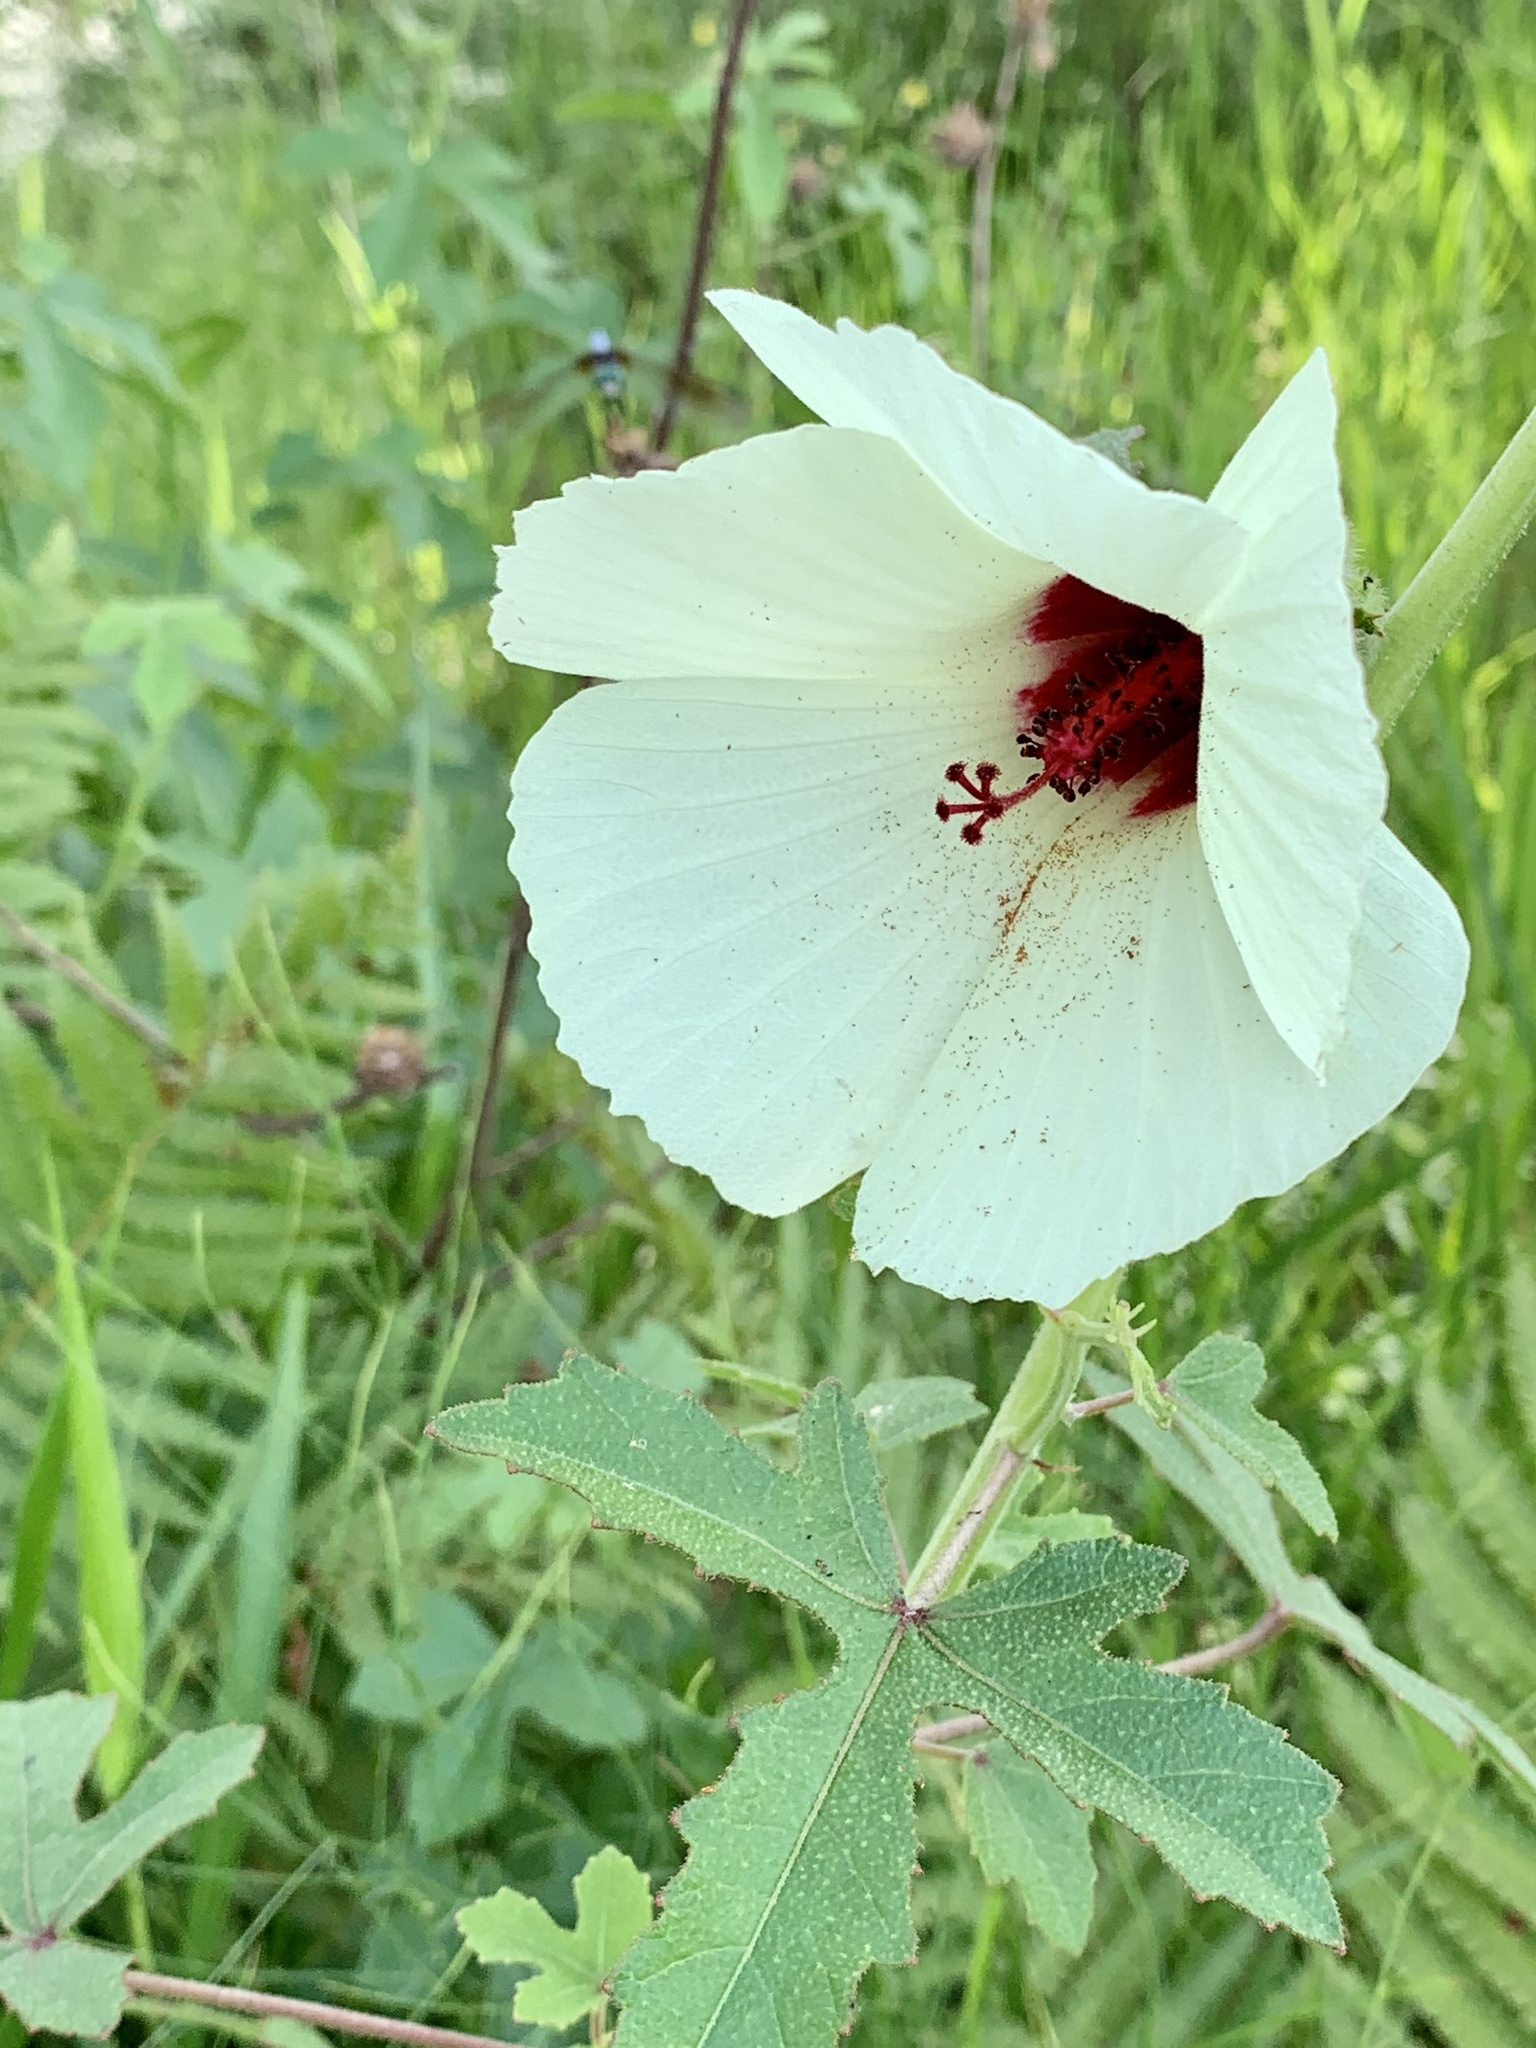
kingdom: Plantae
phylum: Tracheophyta
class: Magnoliopsida
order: Malvales
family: Malvaceae
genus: Hibiscus
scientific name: Hibiscus aculeatus
